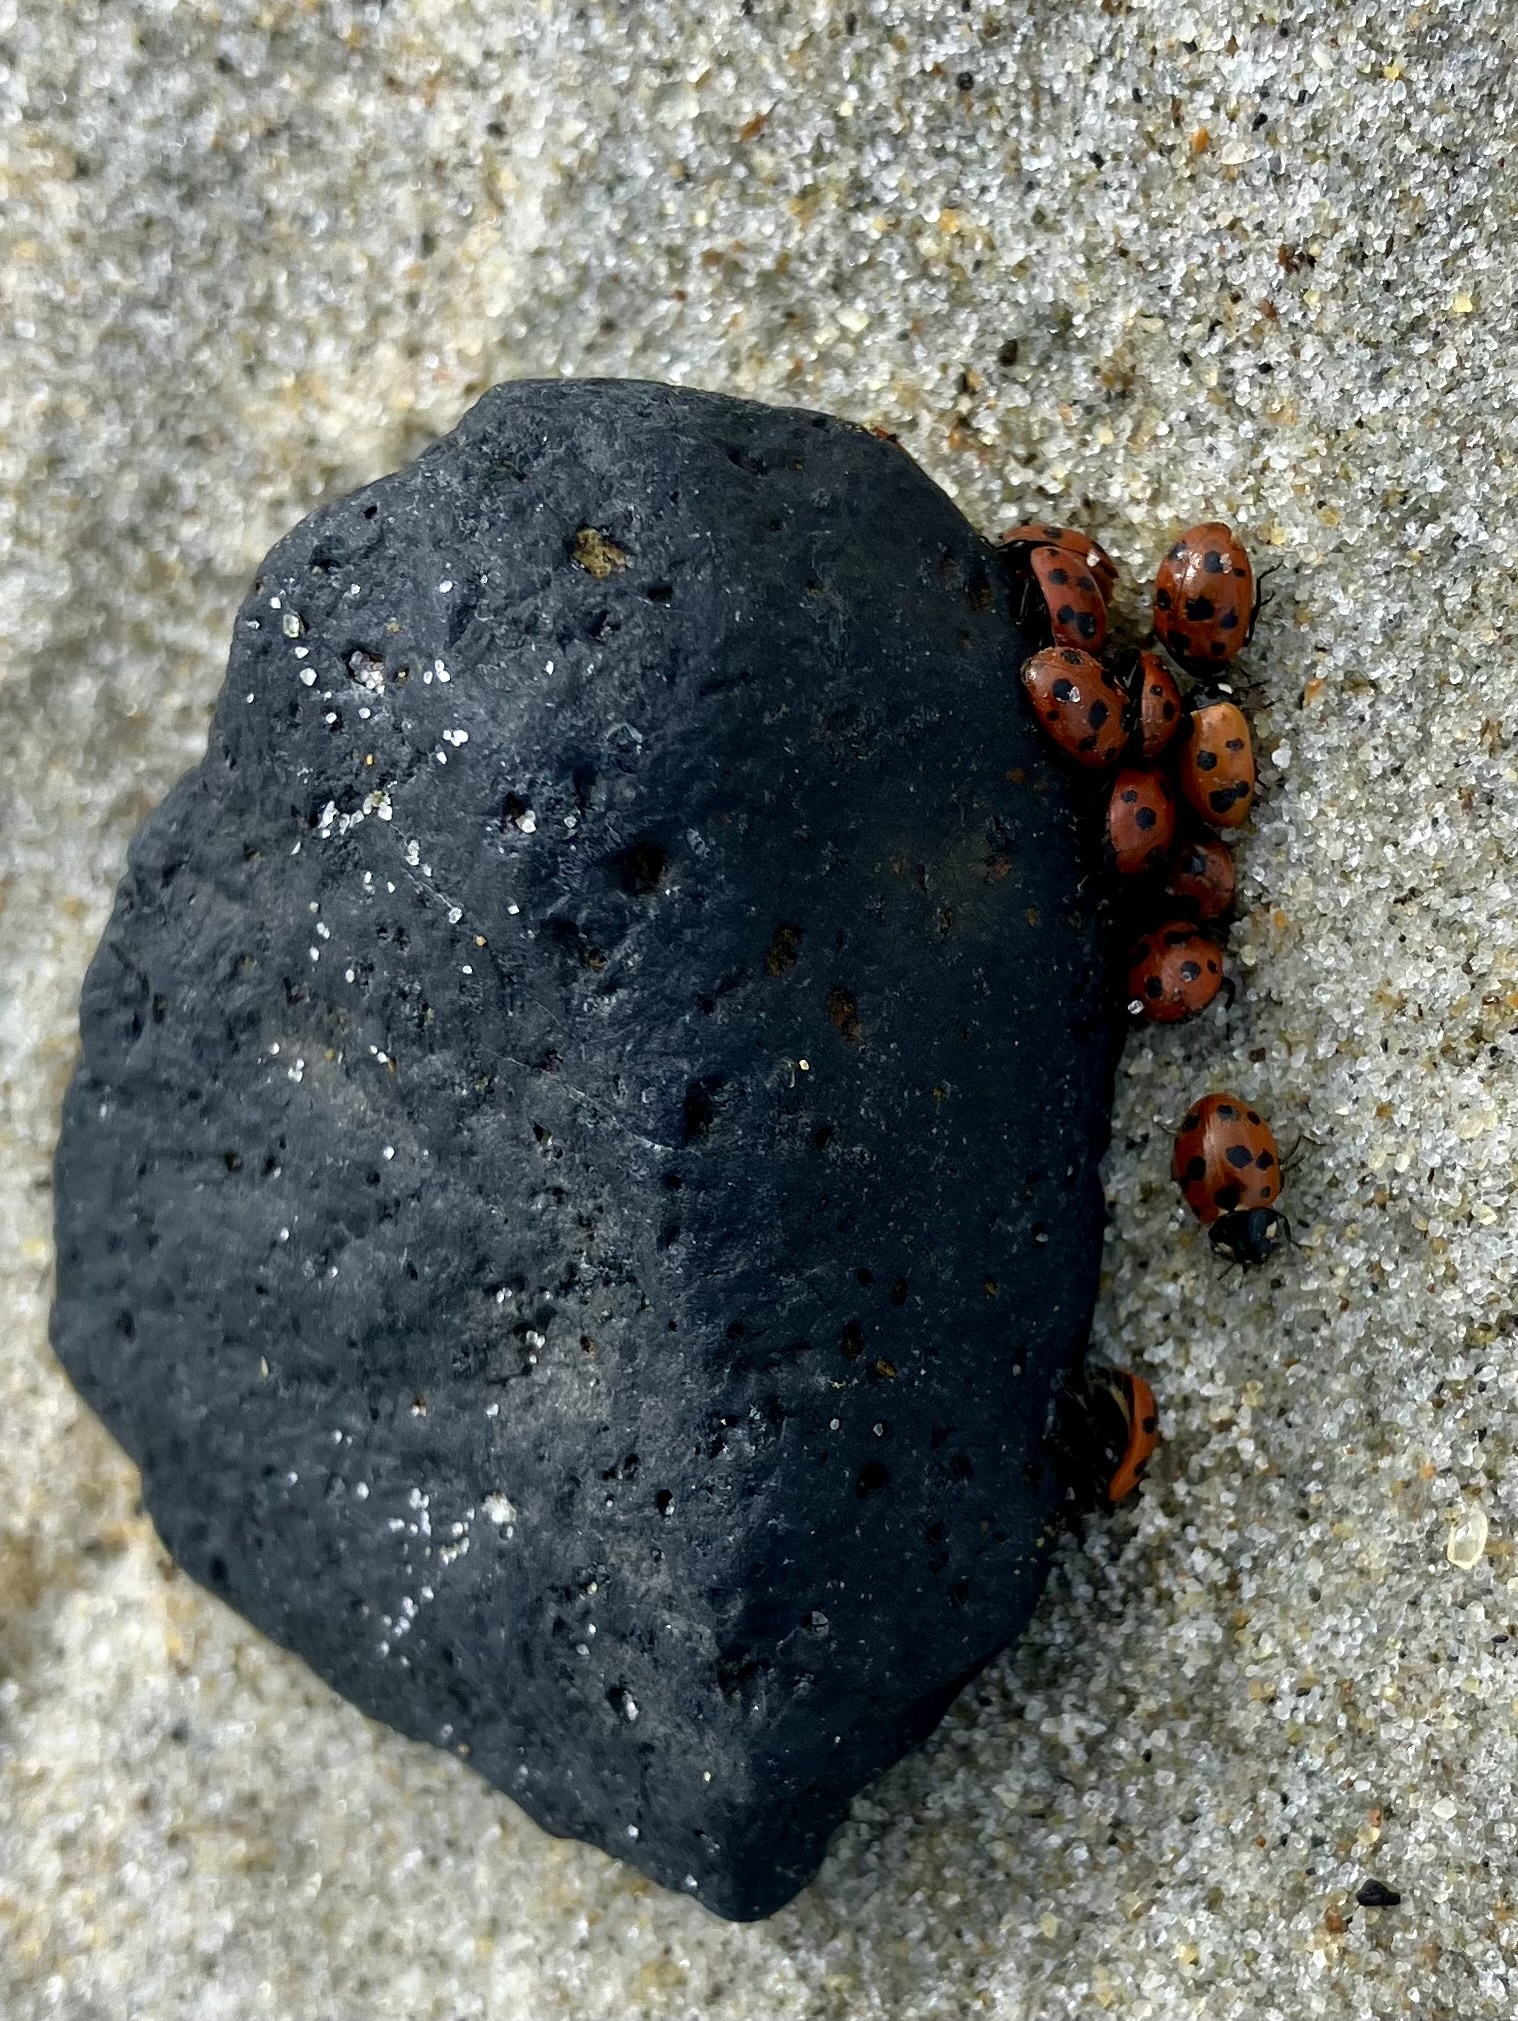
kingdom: Animalia
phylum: Arthropoda
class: Insecta
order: Coleoptera
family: Coccinellidae
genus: Coccinella
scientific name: Coccinella undecimpunctata
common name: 11-spot ladybird
